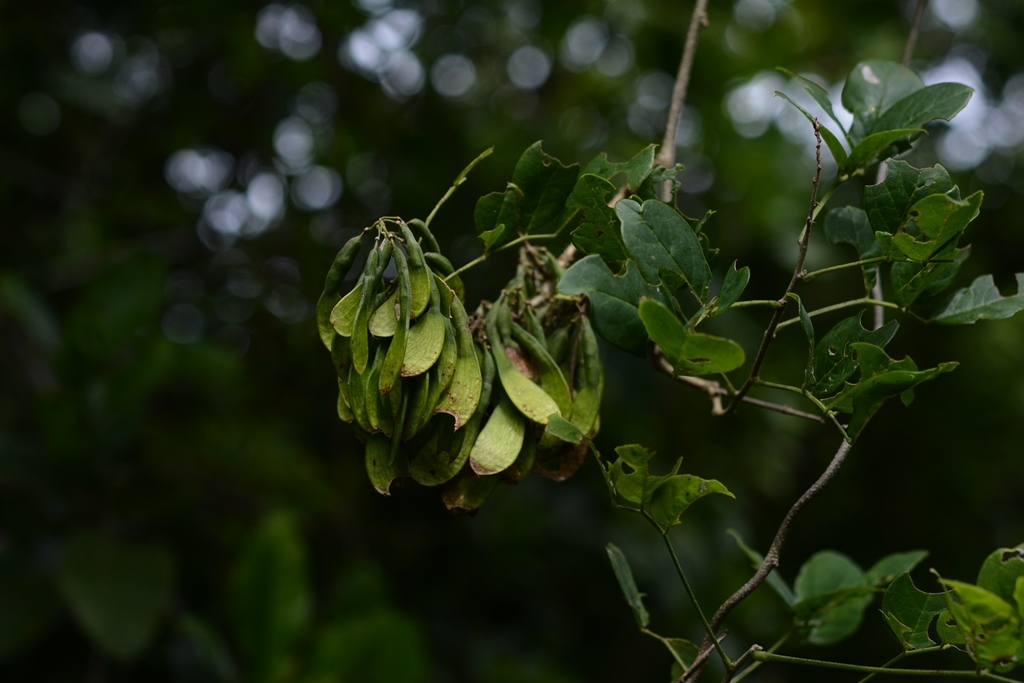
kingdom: Plantae
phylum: Tracheophyta
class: Magnoliopsida
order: Fabales
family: Fabaceae
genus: Nissolia
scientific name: Nissolia fruticosa
